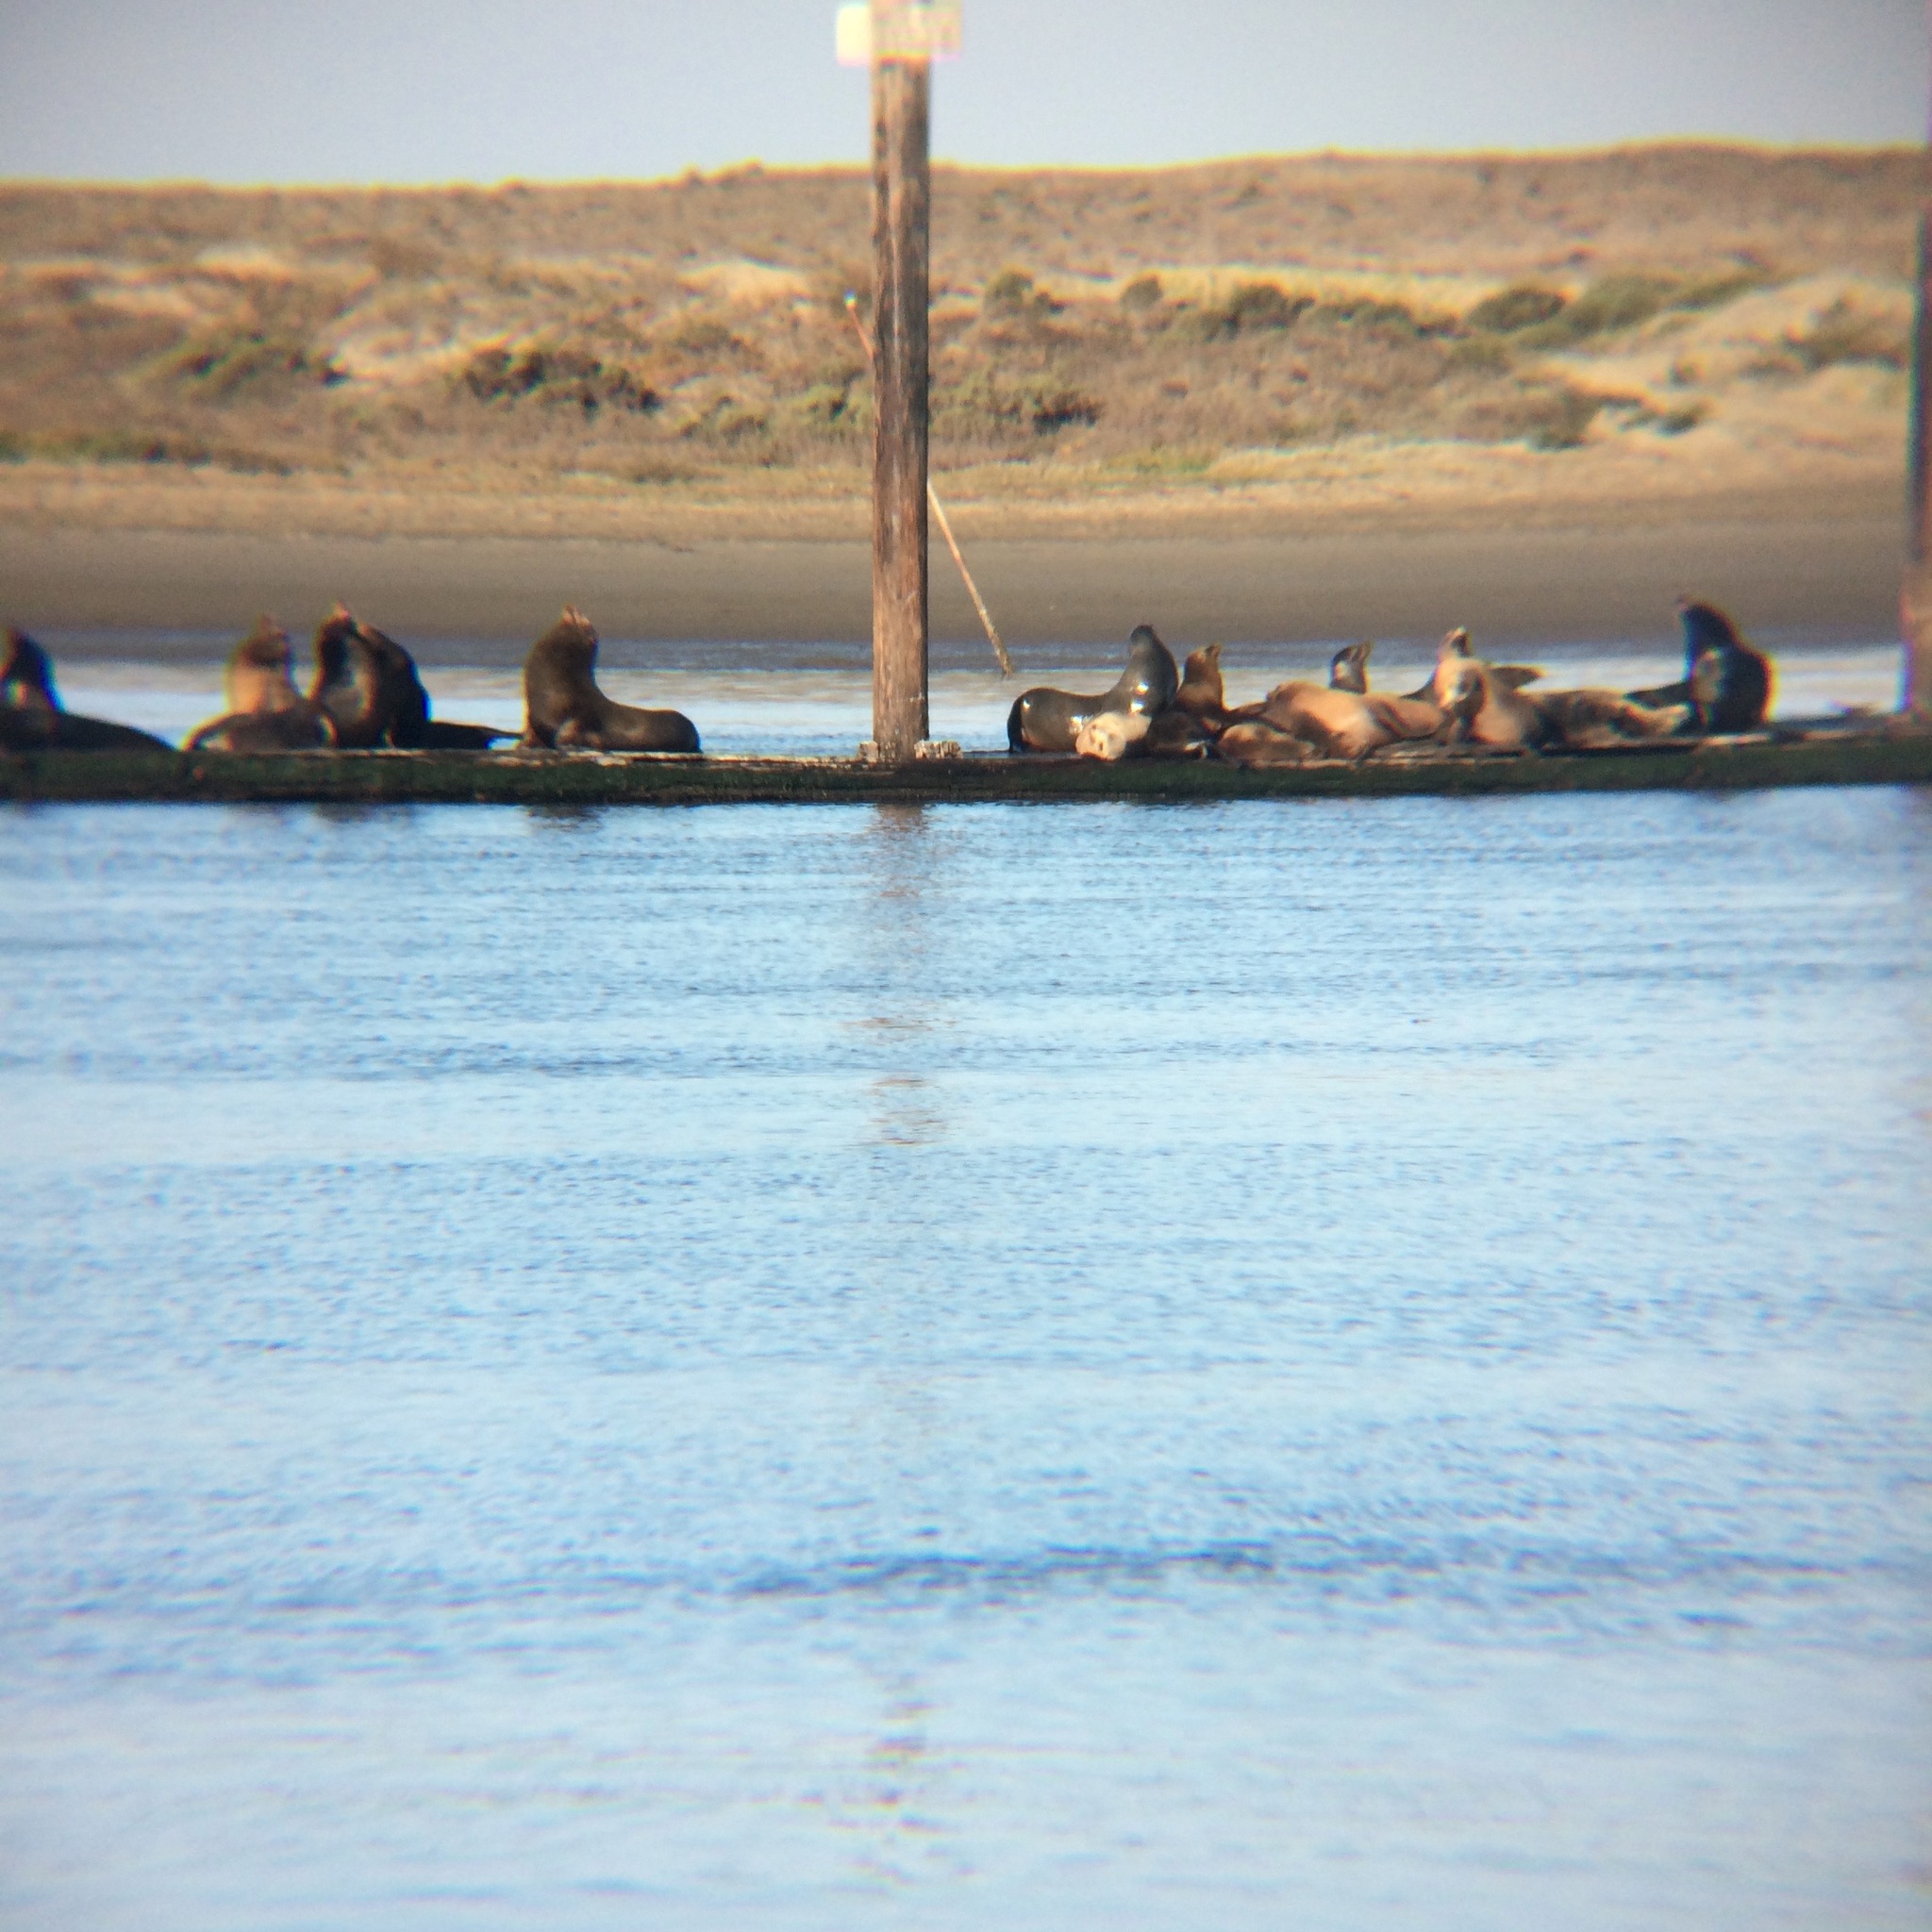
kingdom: Animalia
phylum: Chordata
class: Mammalia
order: Carnivora
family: Otariidae
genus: Zalophus
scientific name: Zalophus californianus
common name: California sea lion
